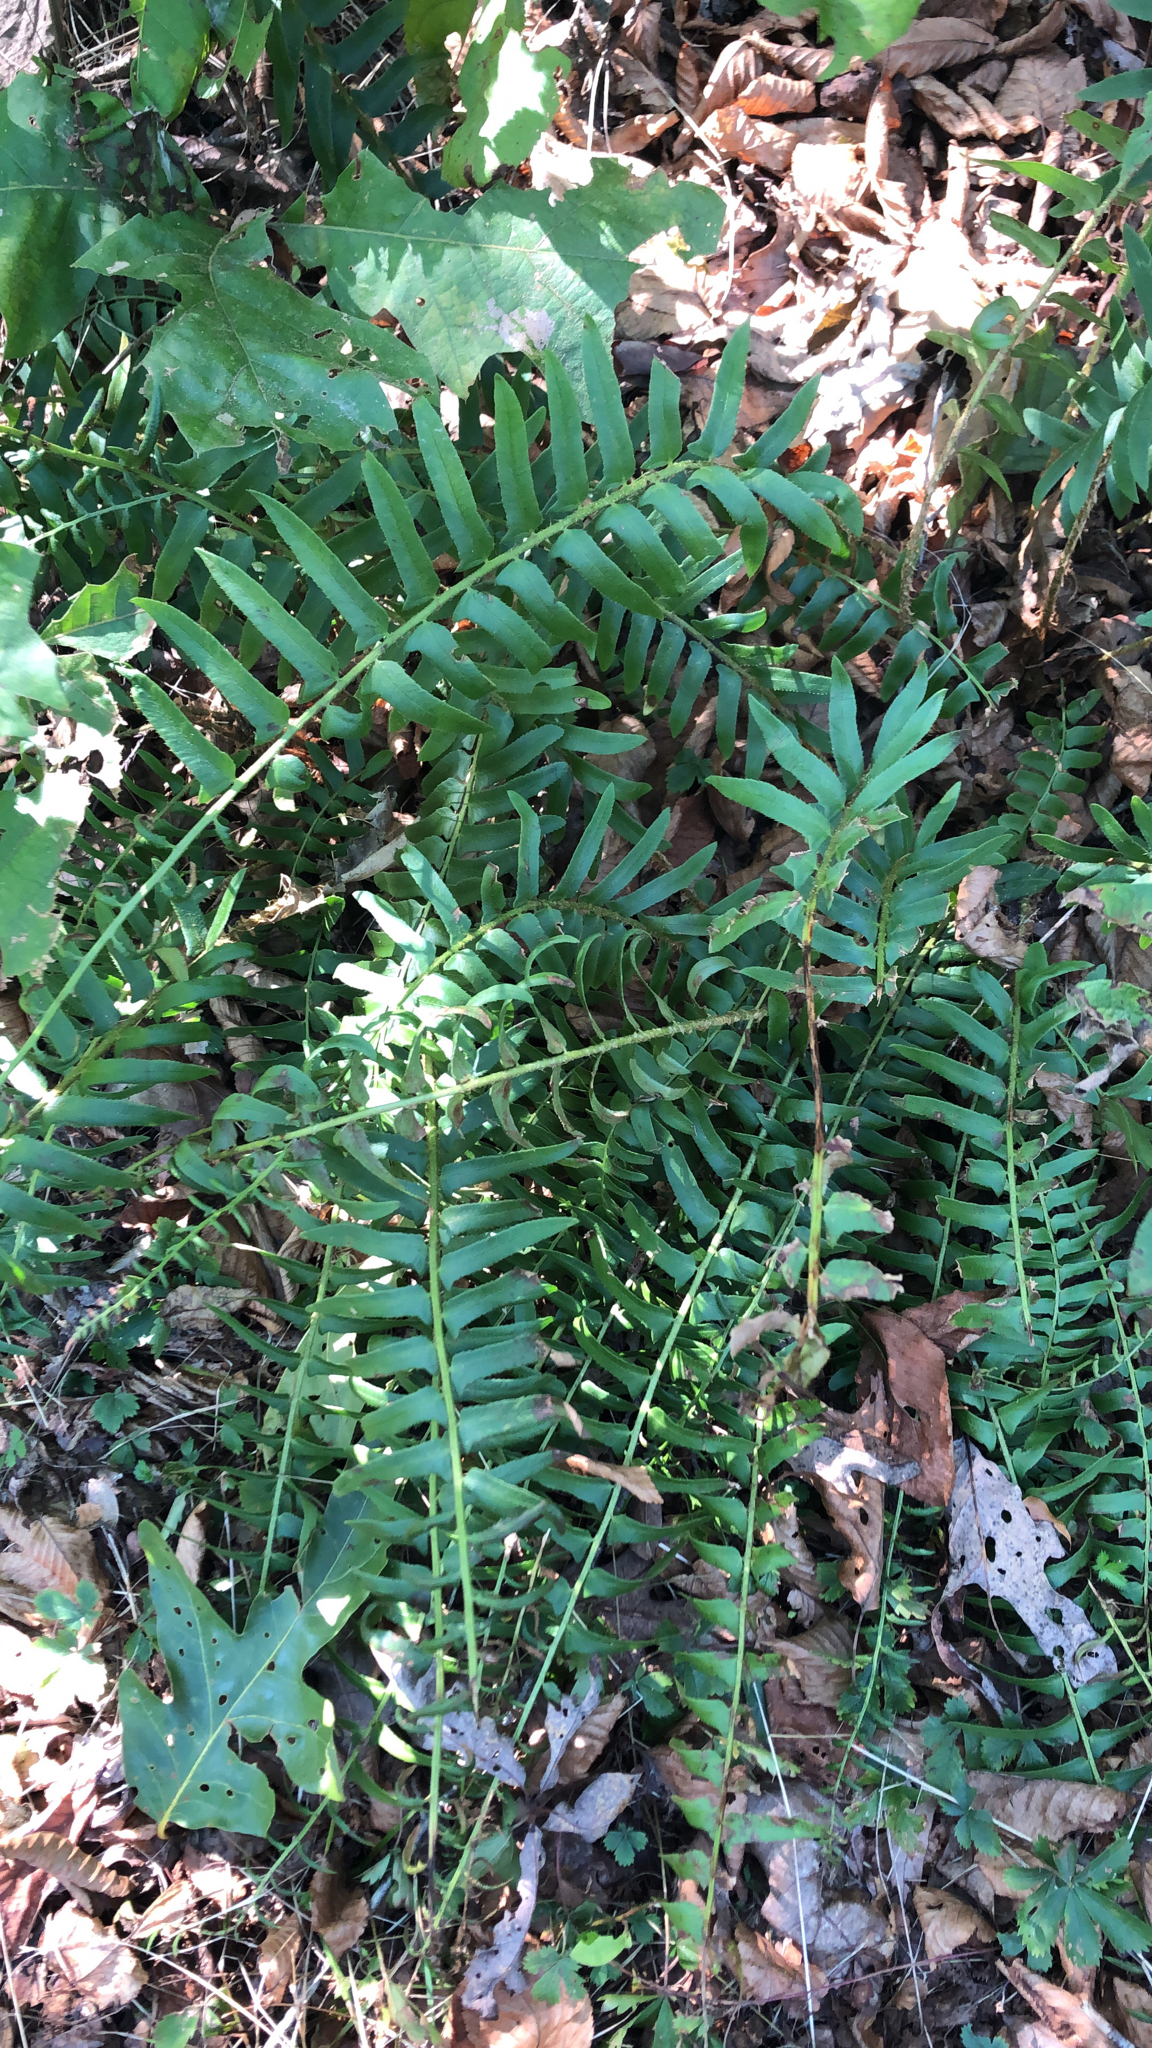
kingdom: Plantae
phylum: Tracheophyta
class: Polypodiopsida
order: Polypodiales
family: Dryopteridaceae
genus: Polystichum
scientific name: Polystichum acrostichoides
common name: Christmas fern
